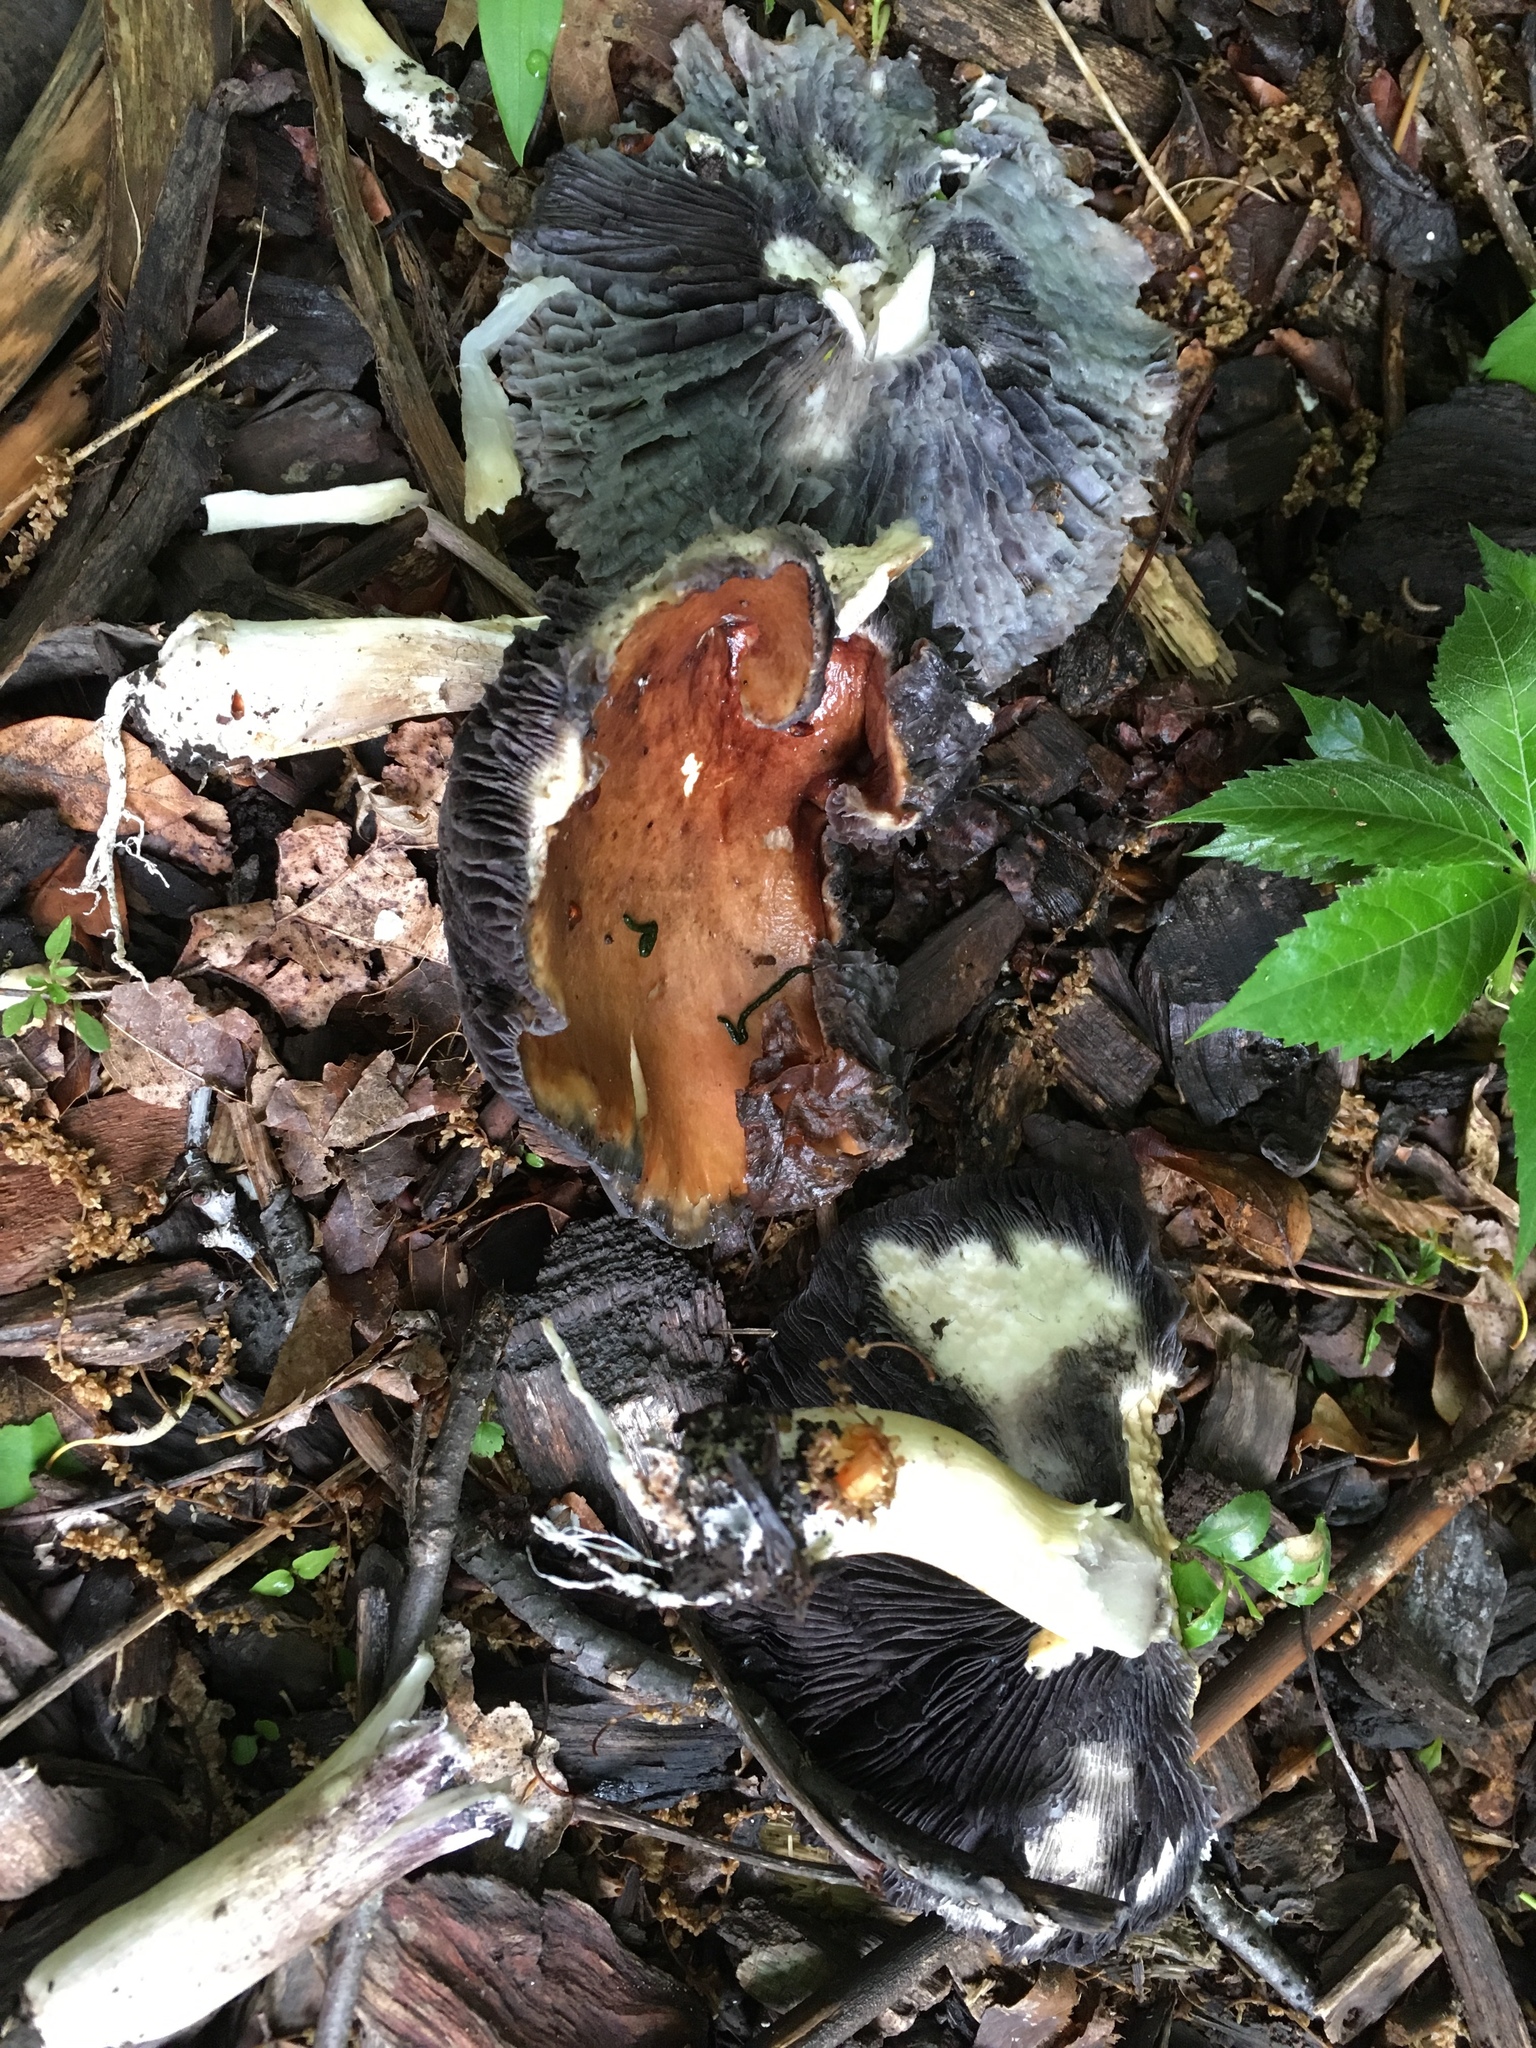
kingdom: Fungi
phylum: Basidiomycota
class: Agaricomycetes
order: Agaricales
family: Strophariaceae
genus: Stropharia
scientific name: Stropharia rugosoannulata
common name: Wine roundhead
